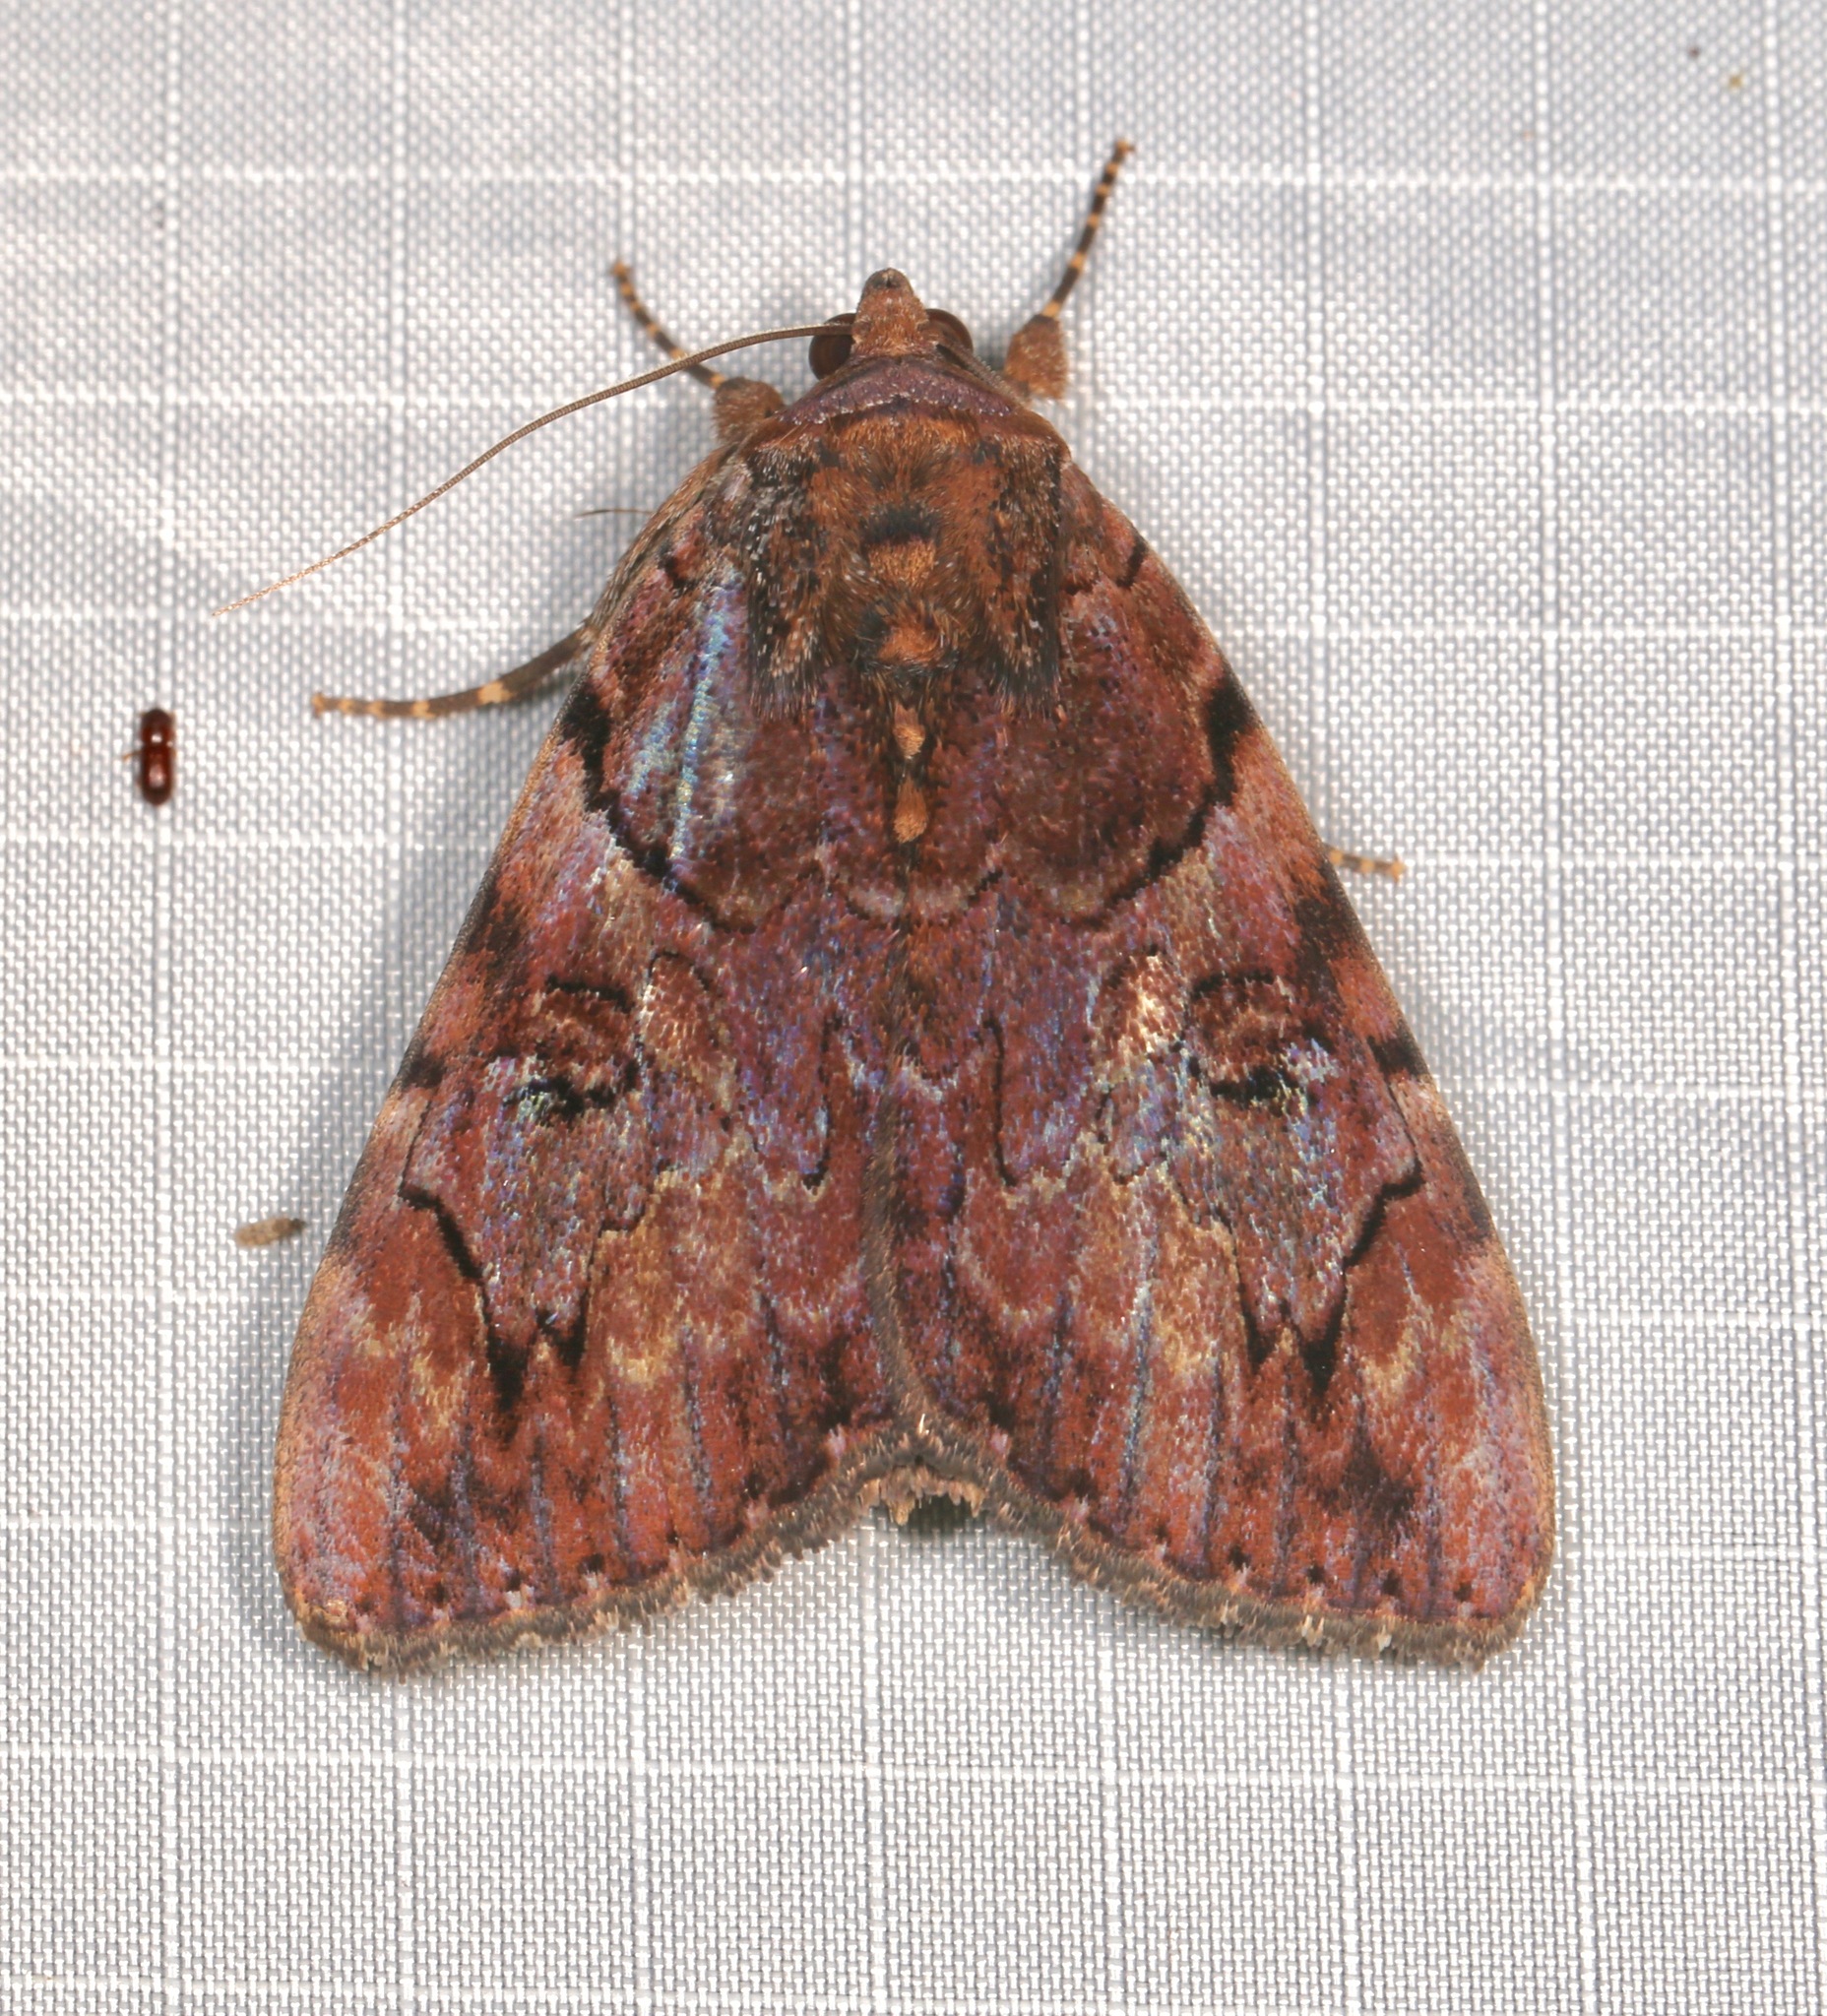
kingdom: Animalia
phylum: Arthropoda
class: Insecta
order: Lepidoptera
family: Erebidae
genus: Catocala
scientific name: Catocala muliercula
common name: The little wife underwing
